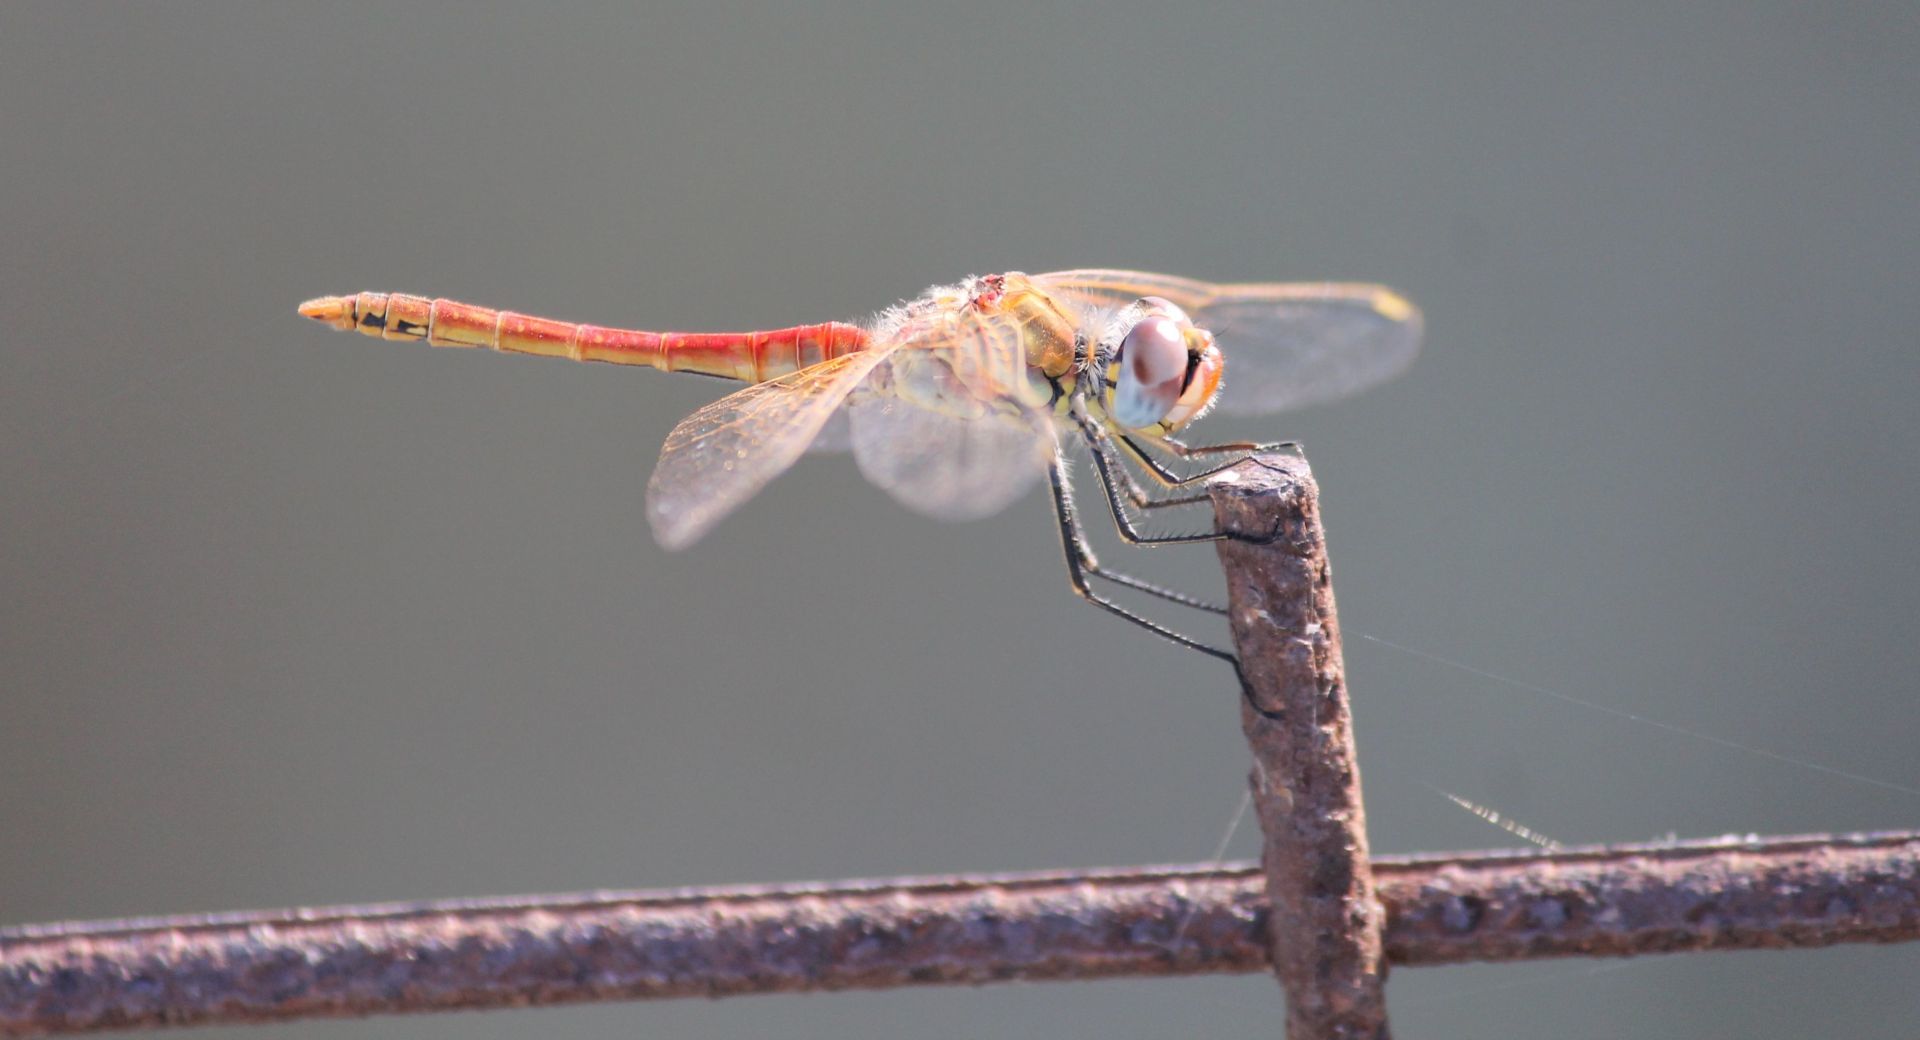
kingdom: Animalia
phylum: Arthropoda
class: Insecta
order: Odonata
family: Libellulidae
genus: Sympetrum
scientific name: Sympetrum fonscolombii
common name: Red-veined darter
